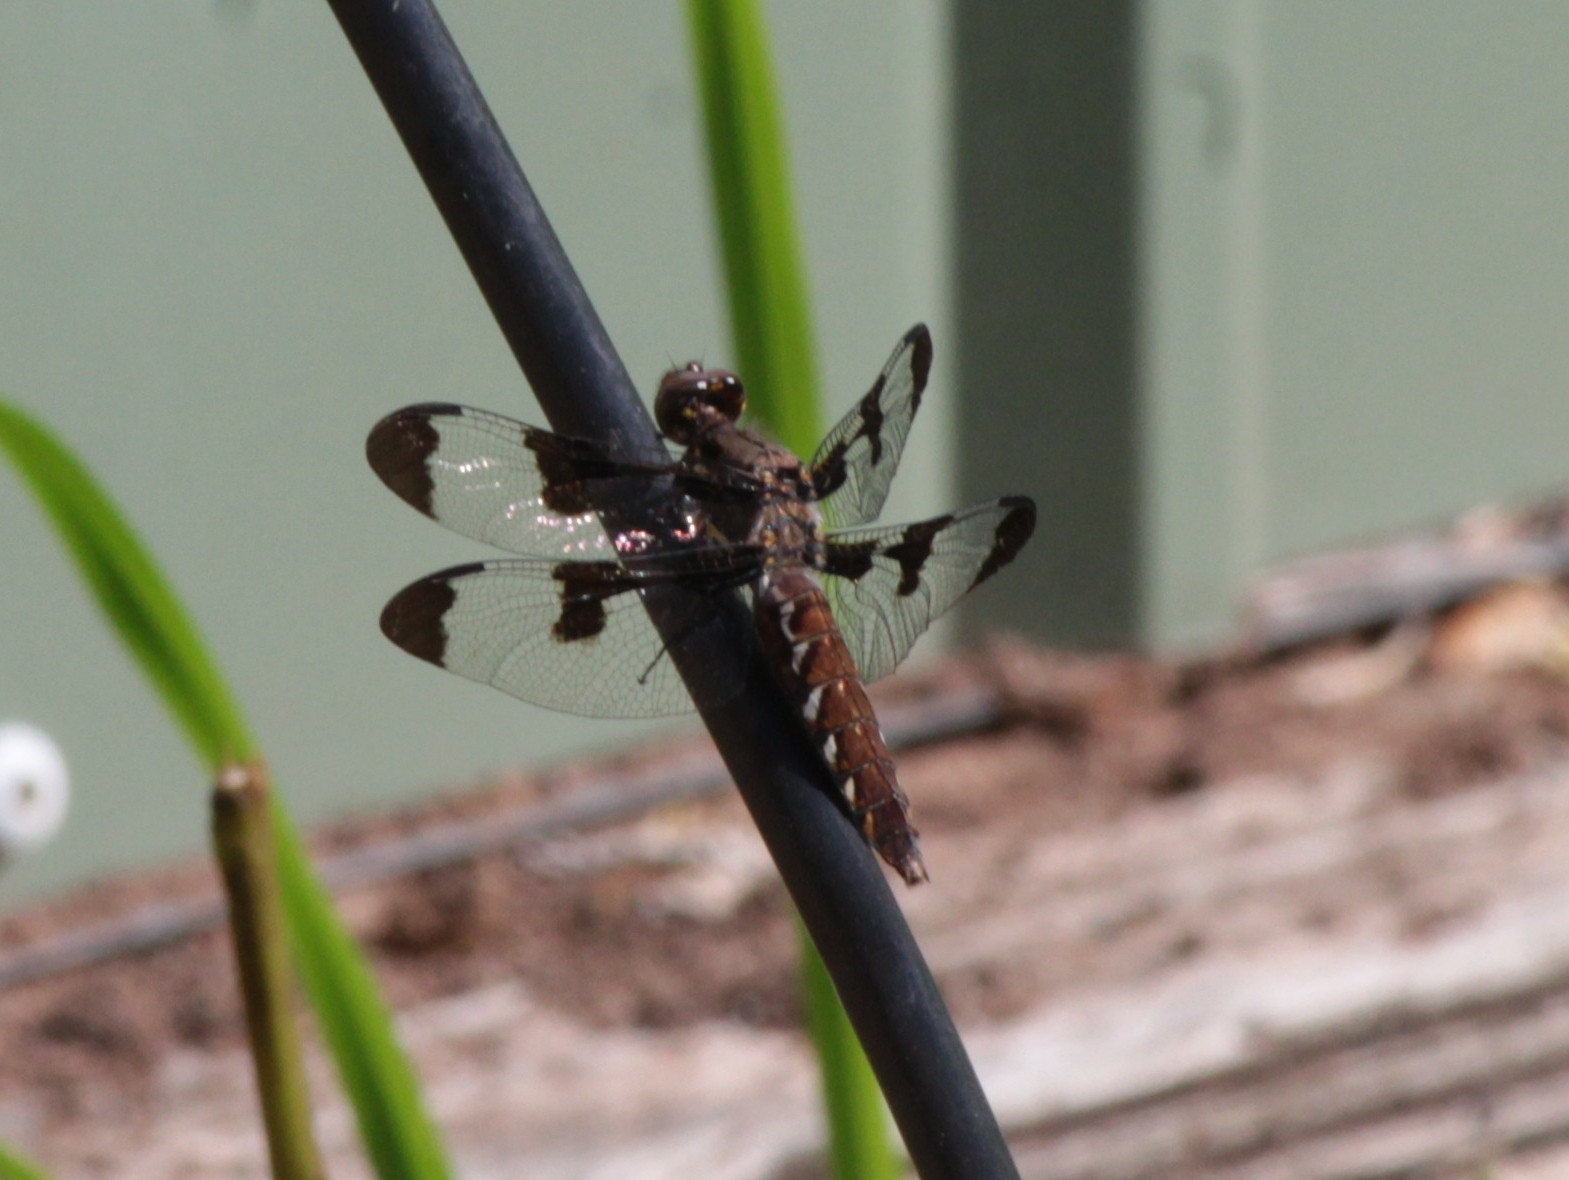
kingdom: Animalia
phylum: Arthropoda
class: Insecta
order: Odonata
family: Libellulidae
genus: Plathemis
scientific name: Plathemis lydia
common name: Common whitetail
